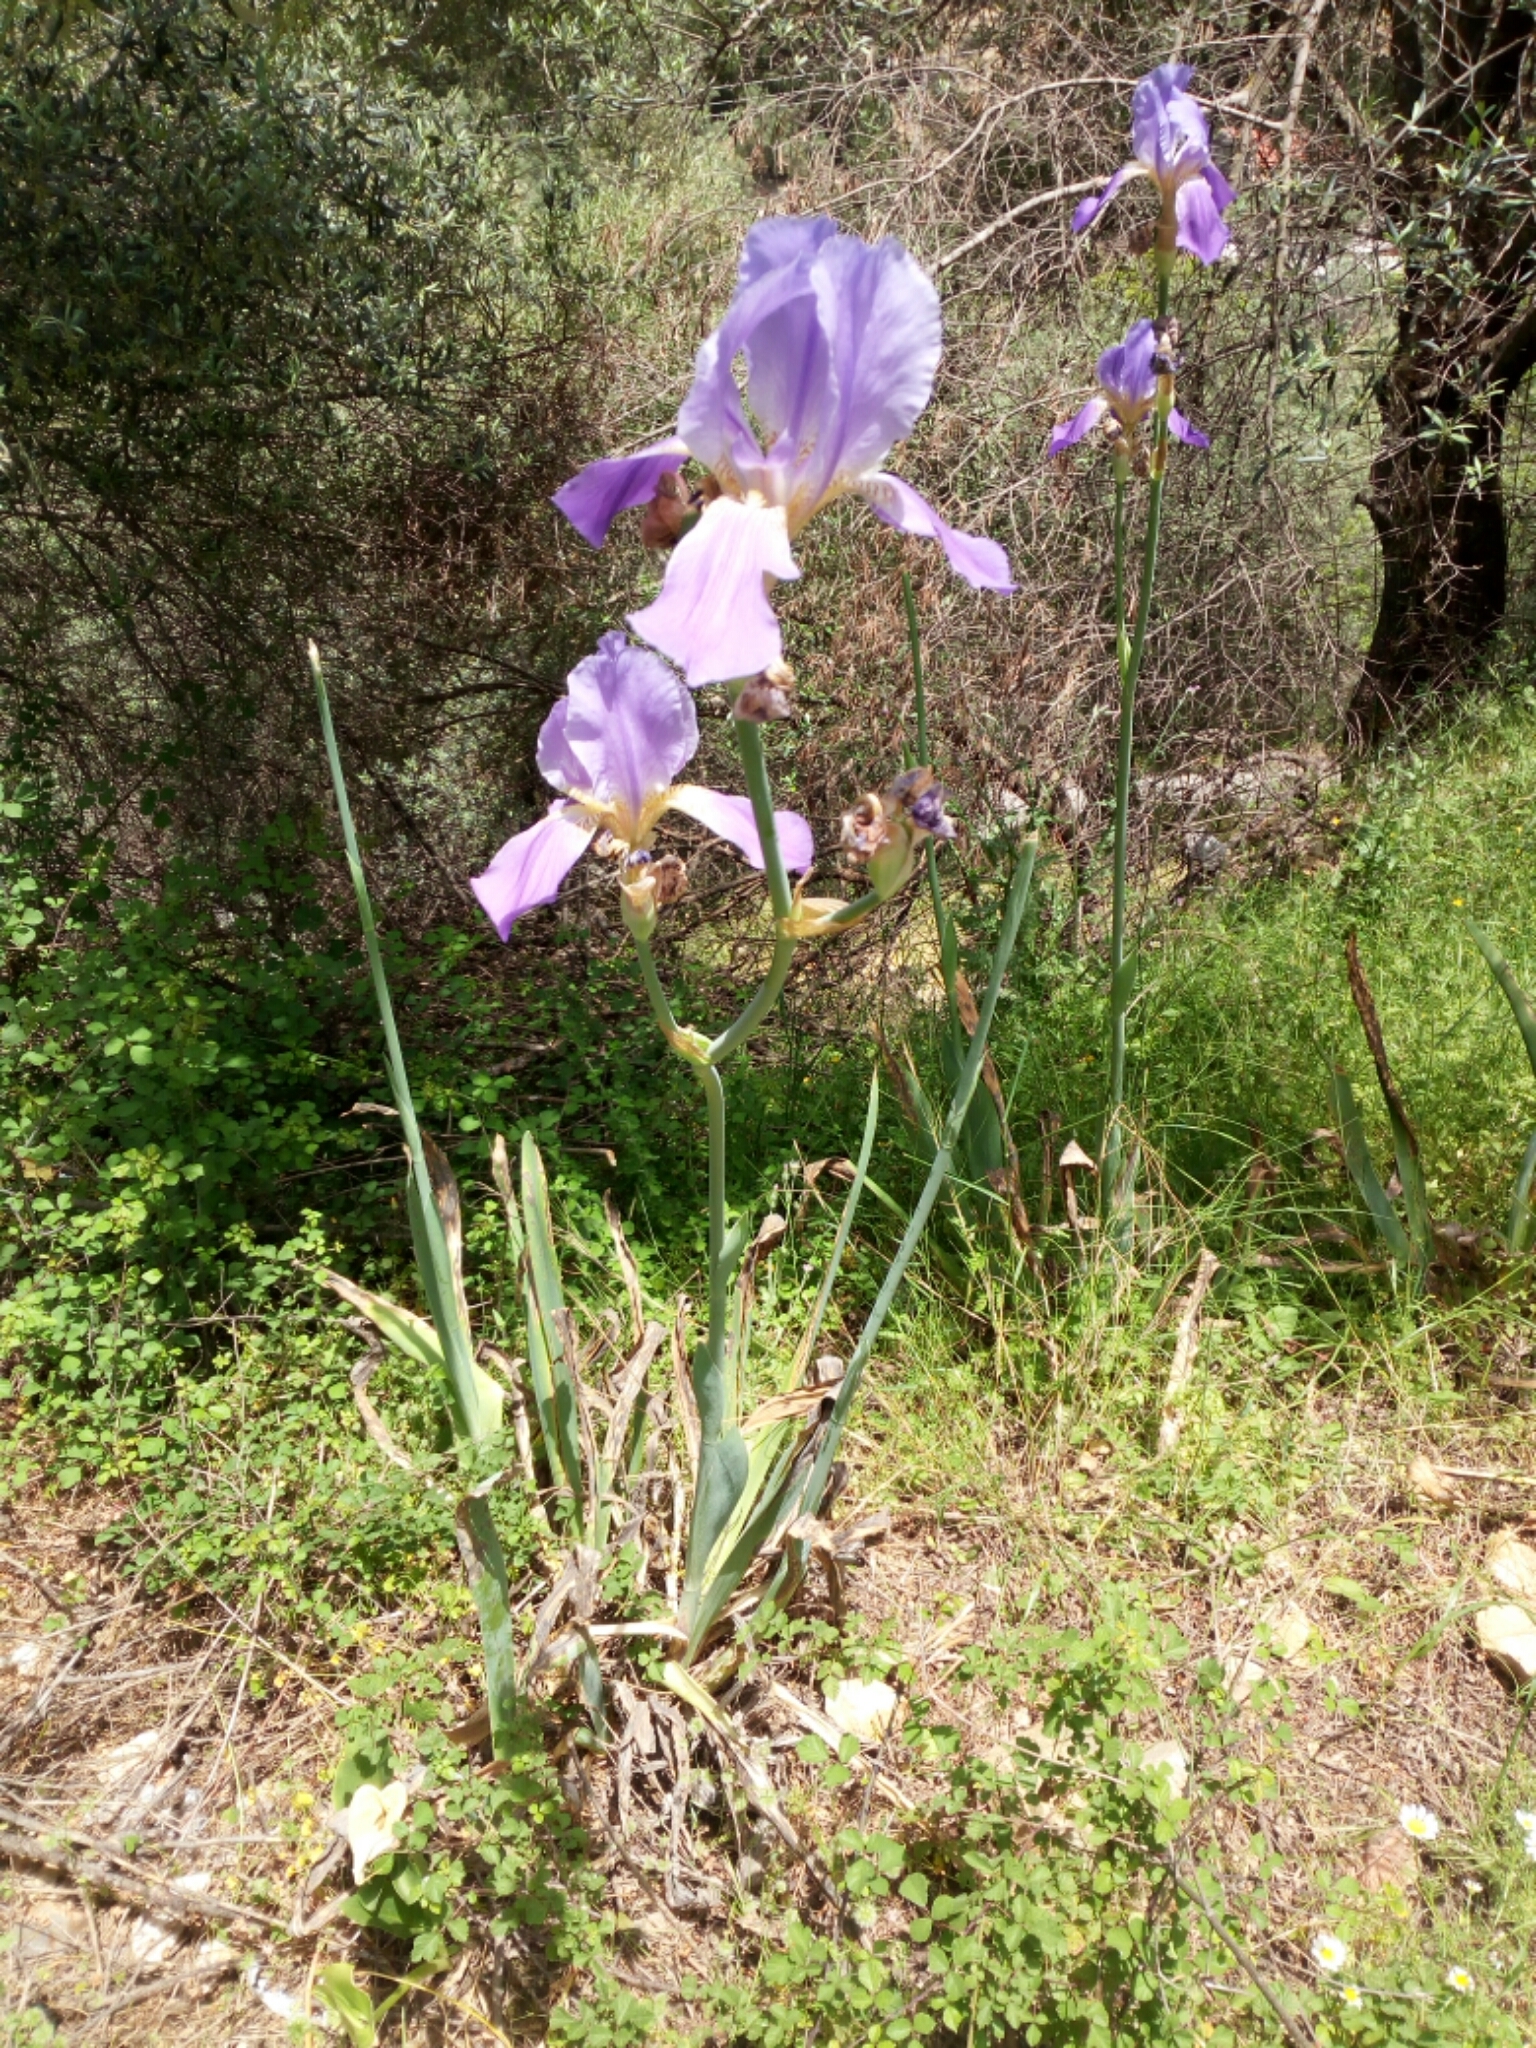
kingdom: Plantae
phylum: Tracheophyta
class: Liliopsida
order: Asparagales
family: Iridaceae
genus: Iris
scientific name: Iris germanica
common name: German iris
